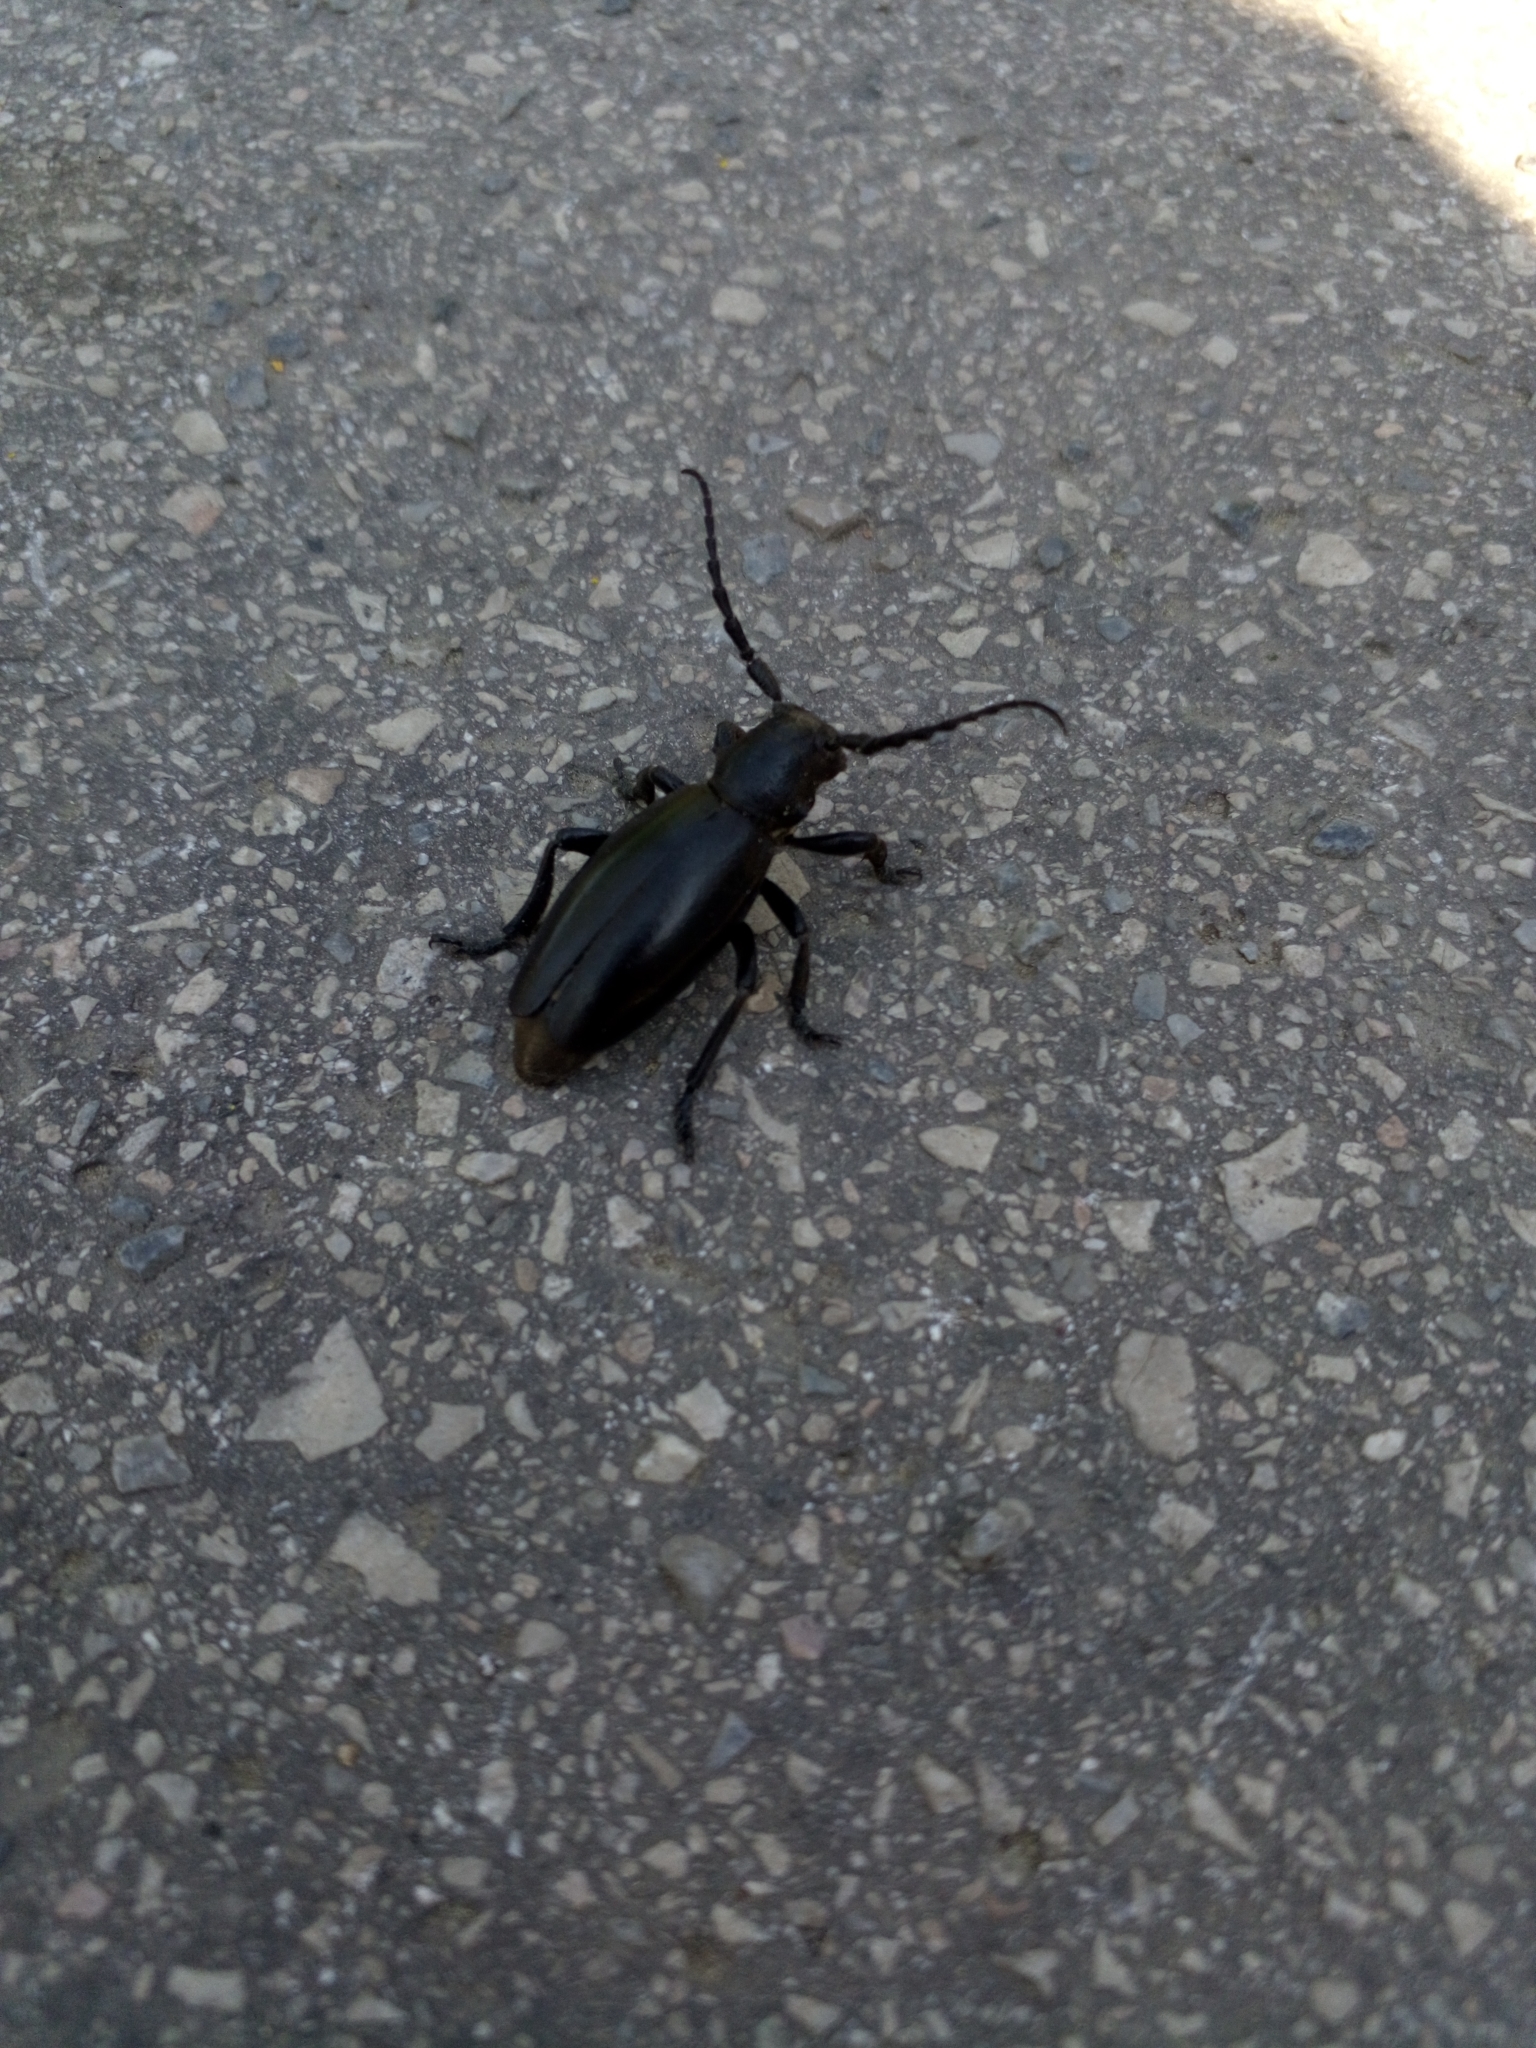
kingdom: Animalia
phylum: Arthropoda
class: Insecta
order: Coleoptera
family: Cerambycidae
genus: Dorcadion
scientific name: Dorcadion aethiops
